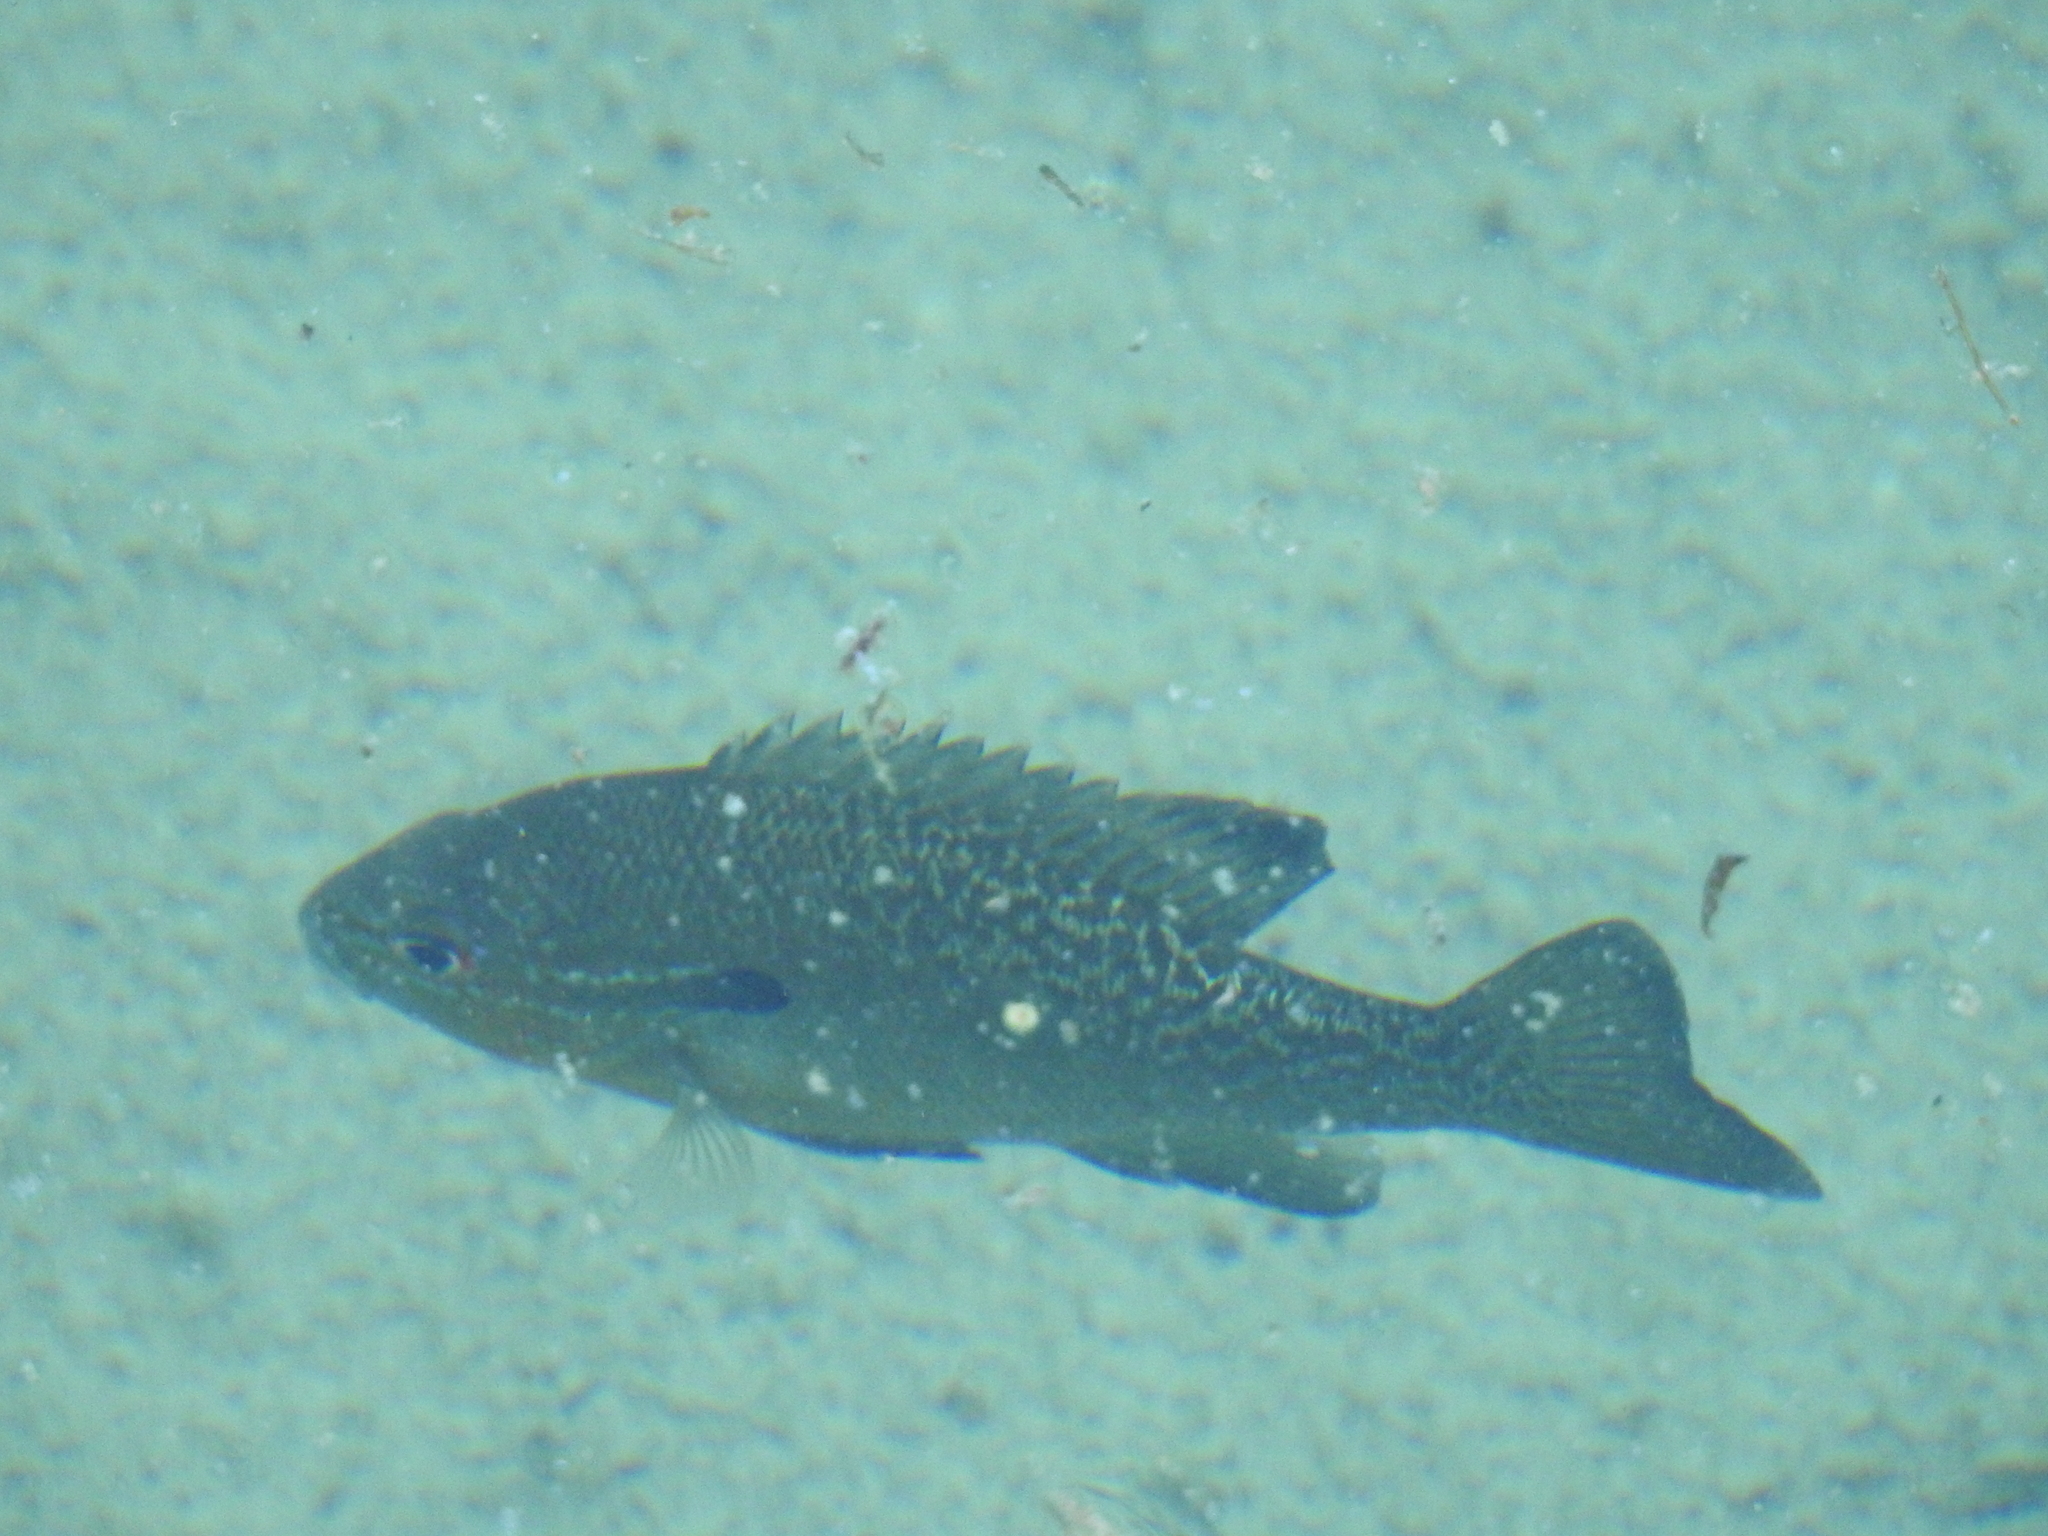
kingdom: Animalia
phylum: Chordata
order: Perciformes
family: Centrarchidae
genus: Lepomis
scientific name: Lepomis auritus
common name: Redbreast sunfish
